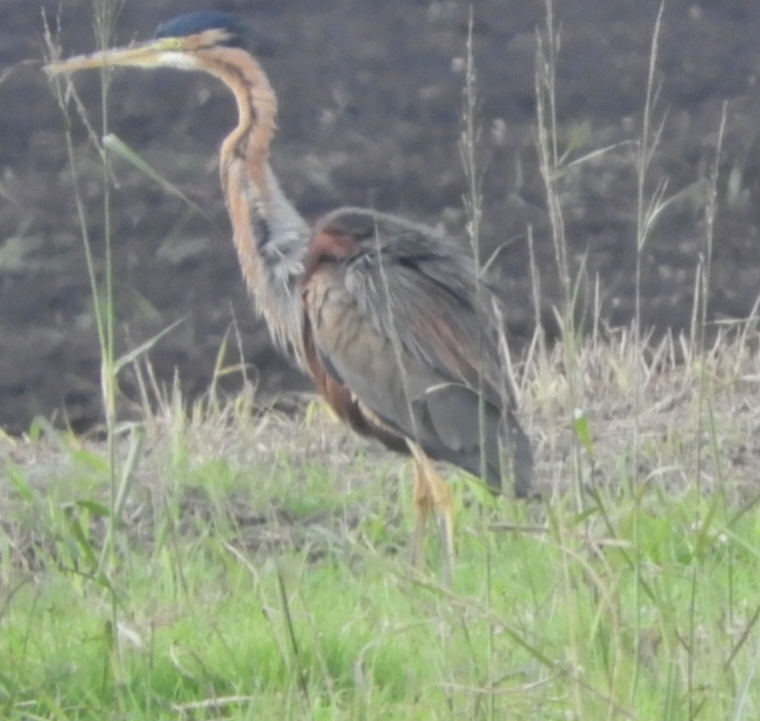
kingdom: Animalia
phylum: Chordata
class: Aves
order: Pelecaniformes
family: Ardeidae
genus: Ardea
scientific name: Ardea purpurea
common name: Purple heron
